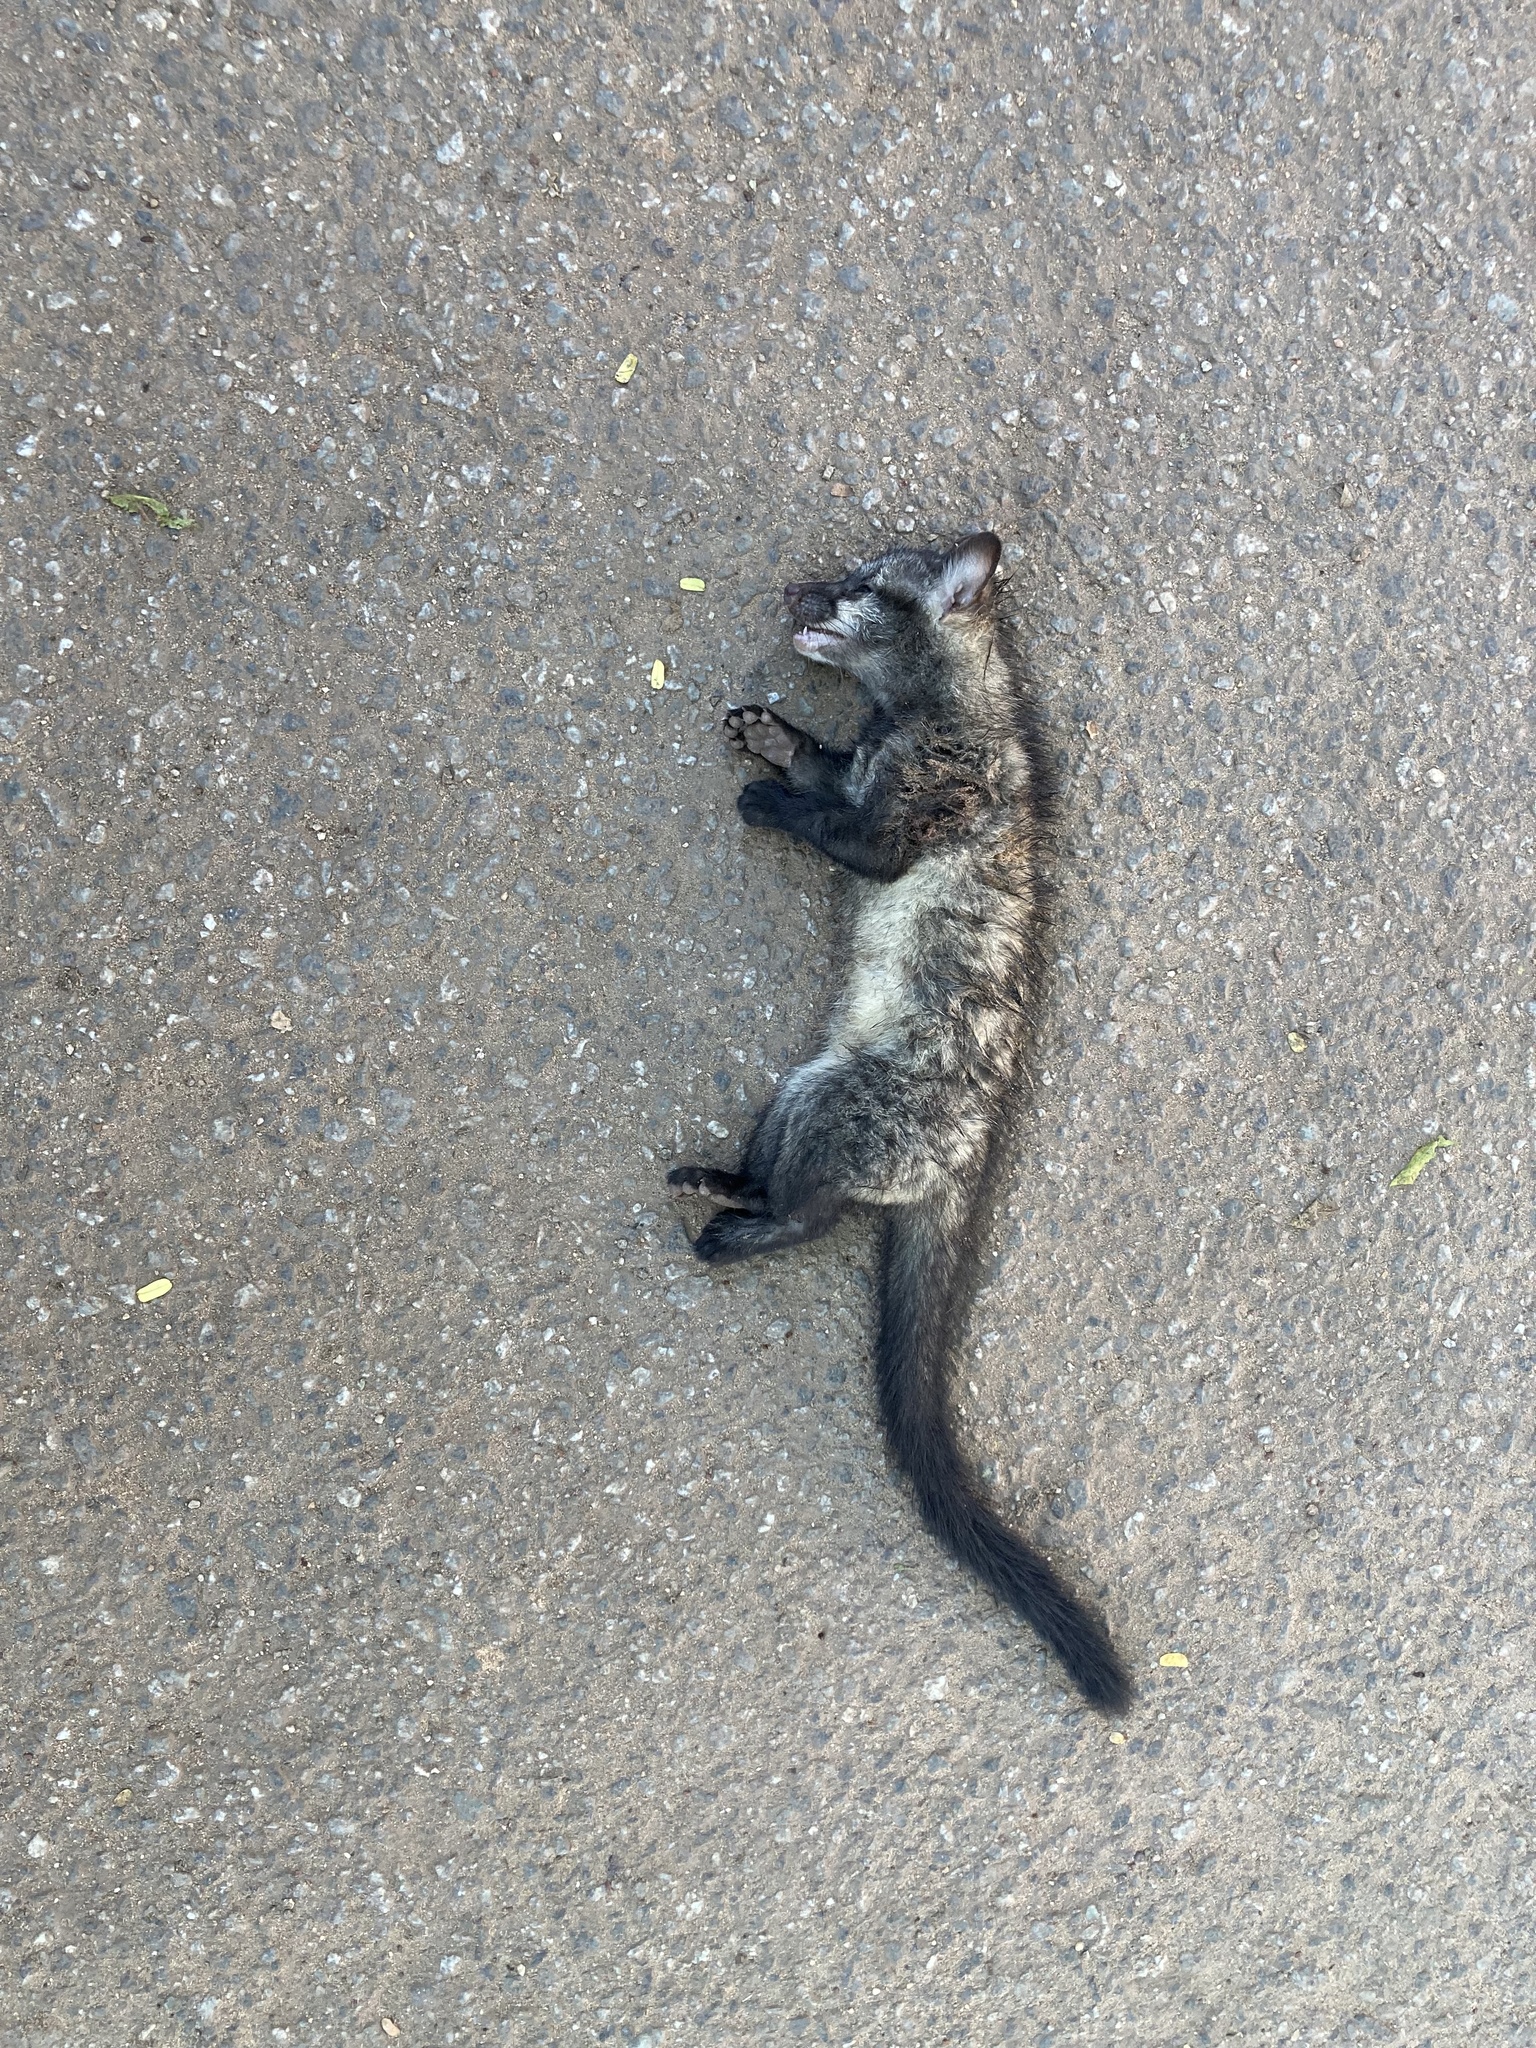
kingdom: Animalia
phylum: Chordata
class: Mammalia
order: Carnivora
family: Viverridae
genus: Paradoxurus
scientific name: Paradoxurus hermaphroditus
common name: Common palm civet
